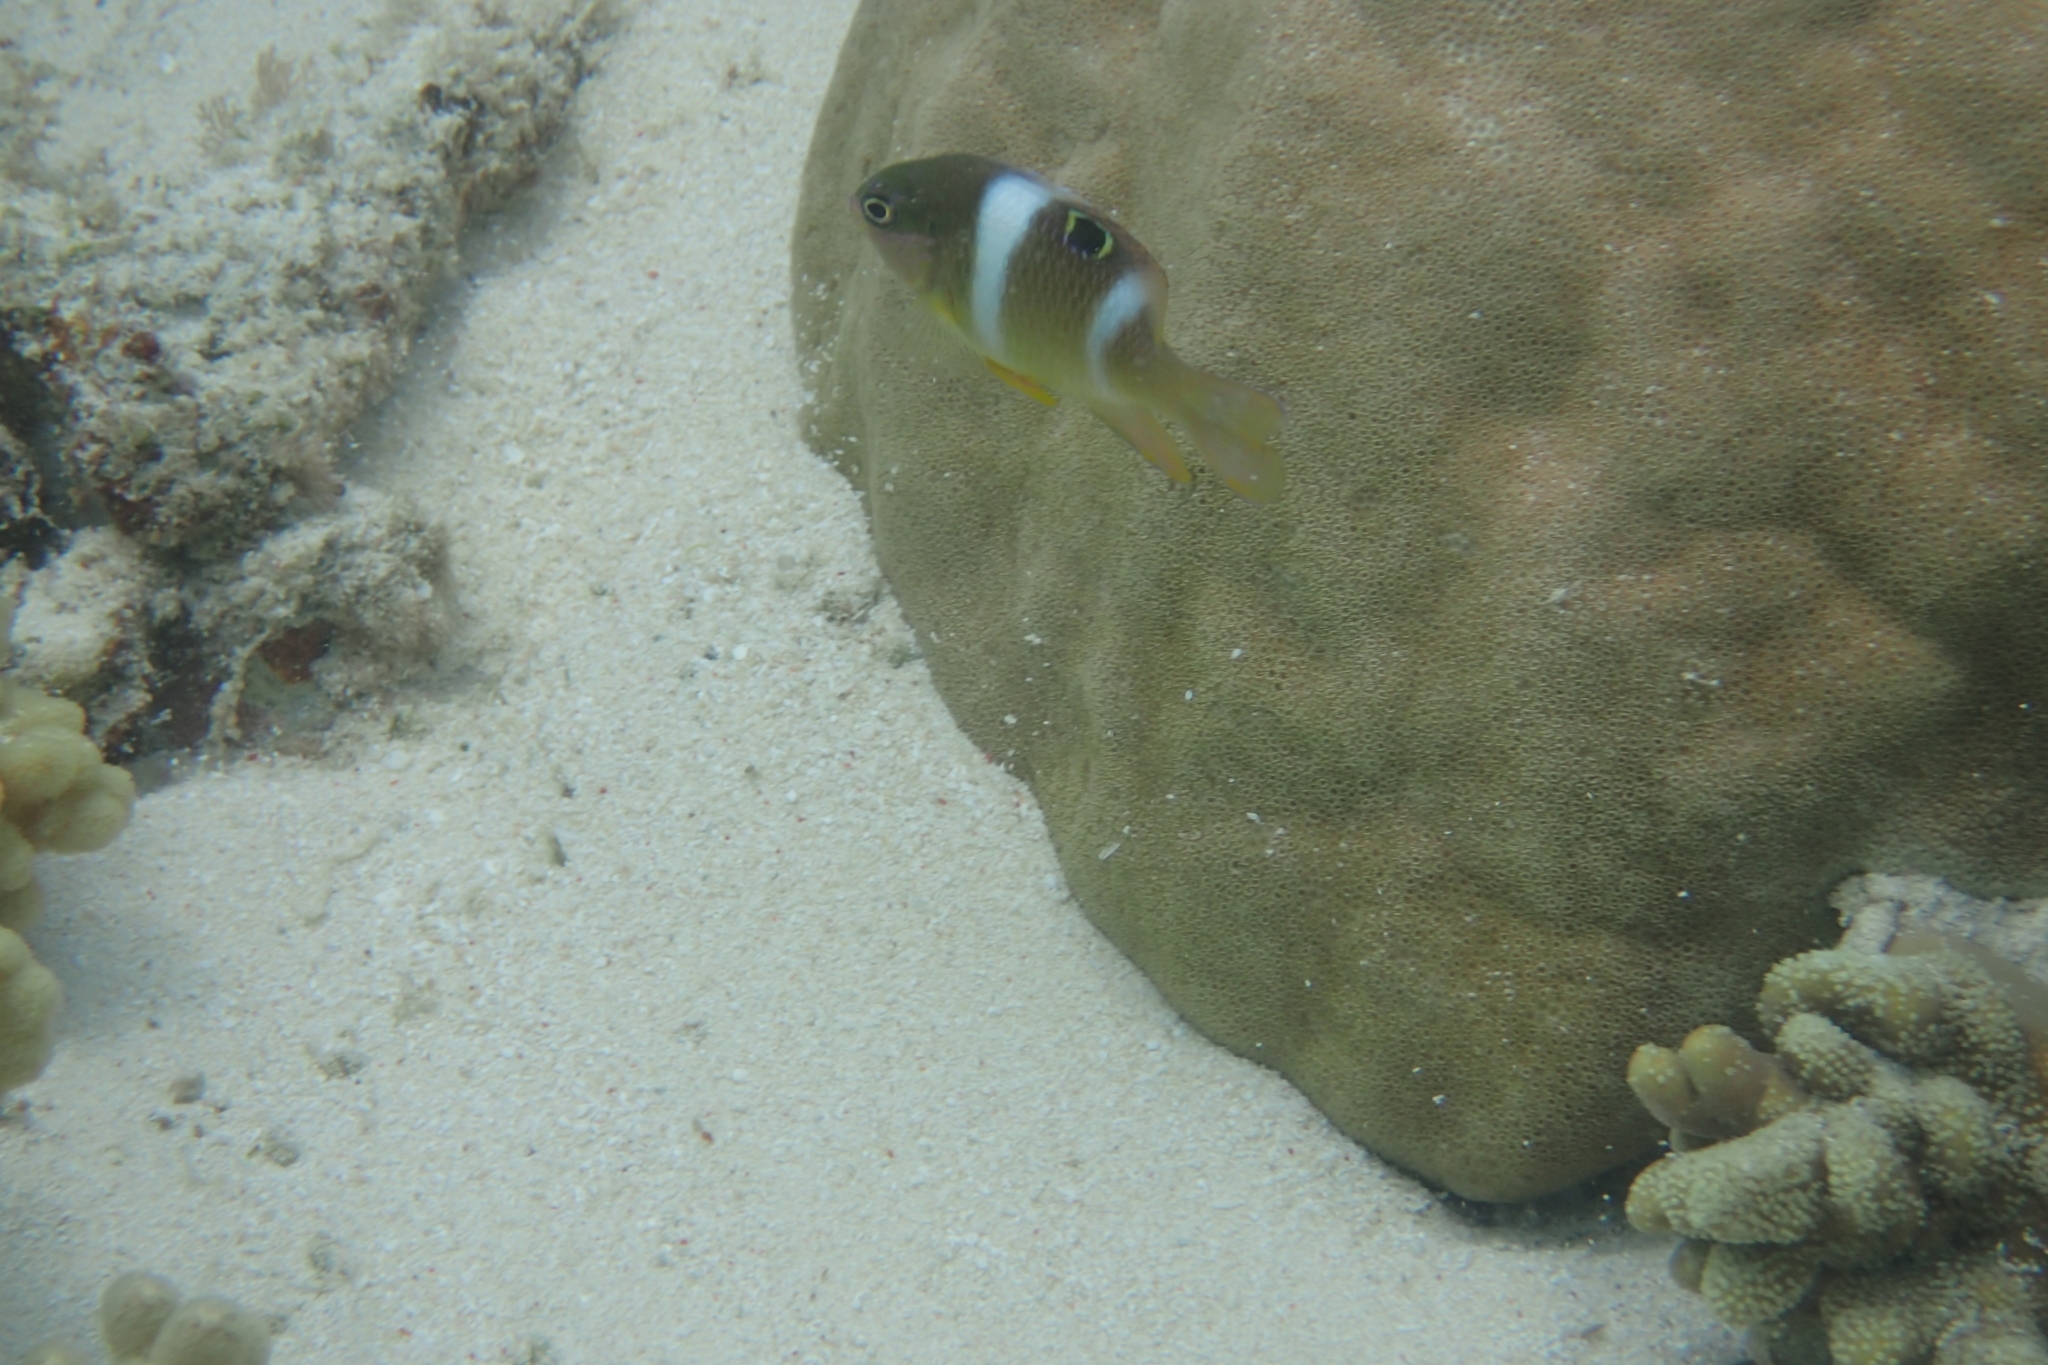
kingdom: Animalia
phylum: Chordata
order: Perciformes
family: Pomacentridae
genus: Dischistodus
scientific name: Dischistodus pseudochrysopoecilus
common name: Monarch damsel
